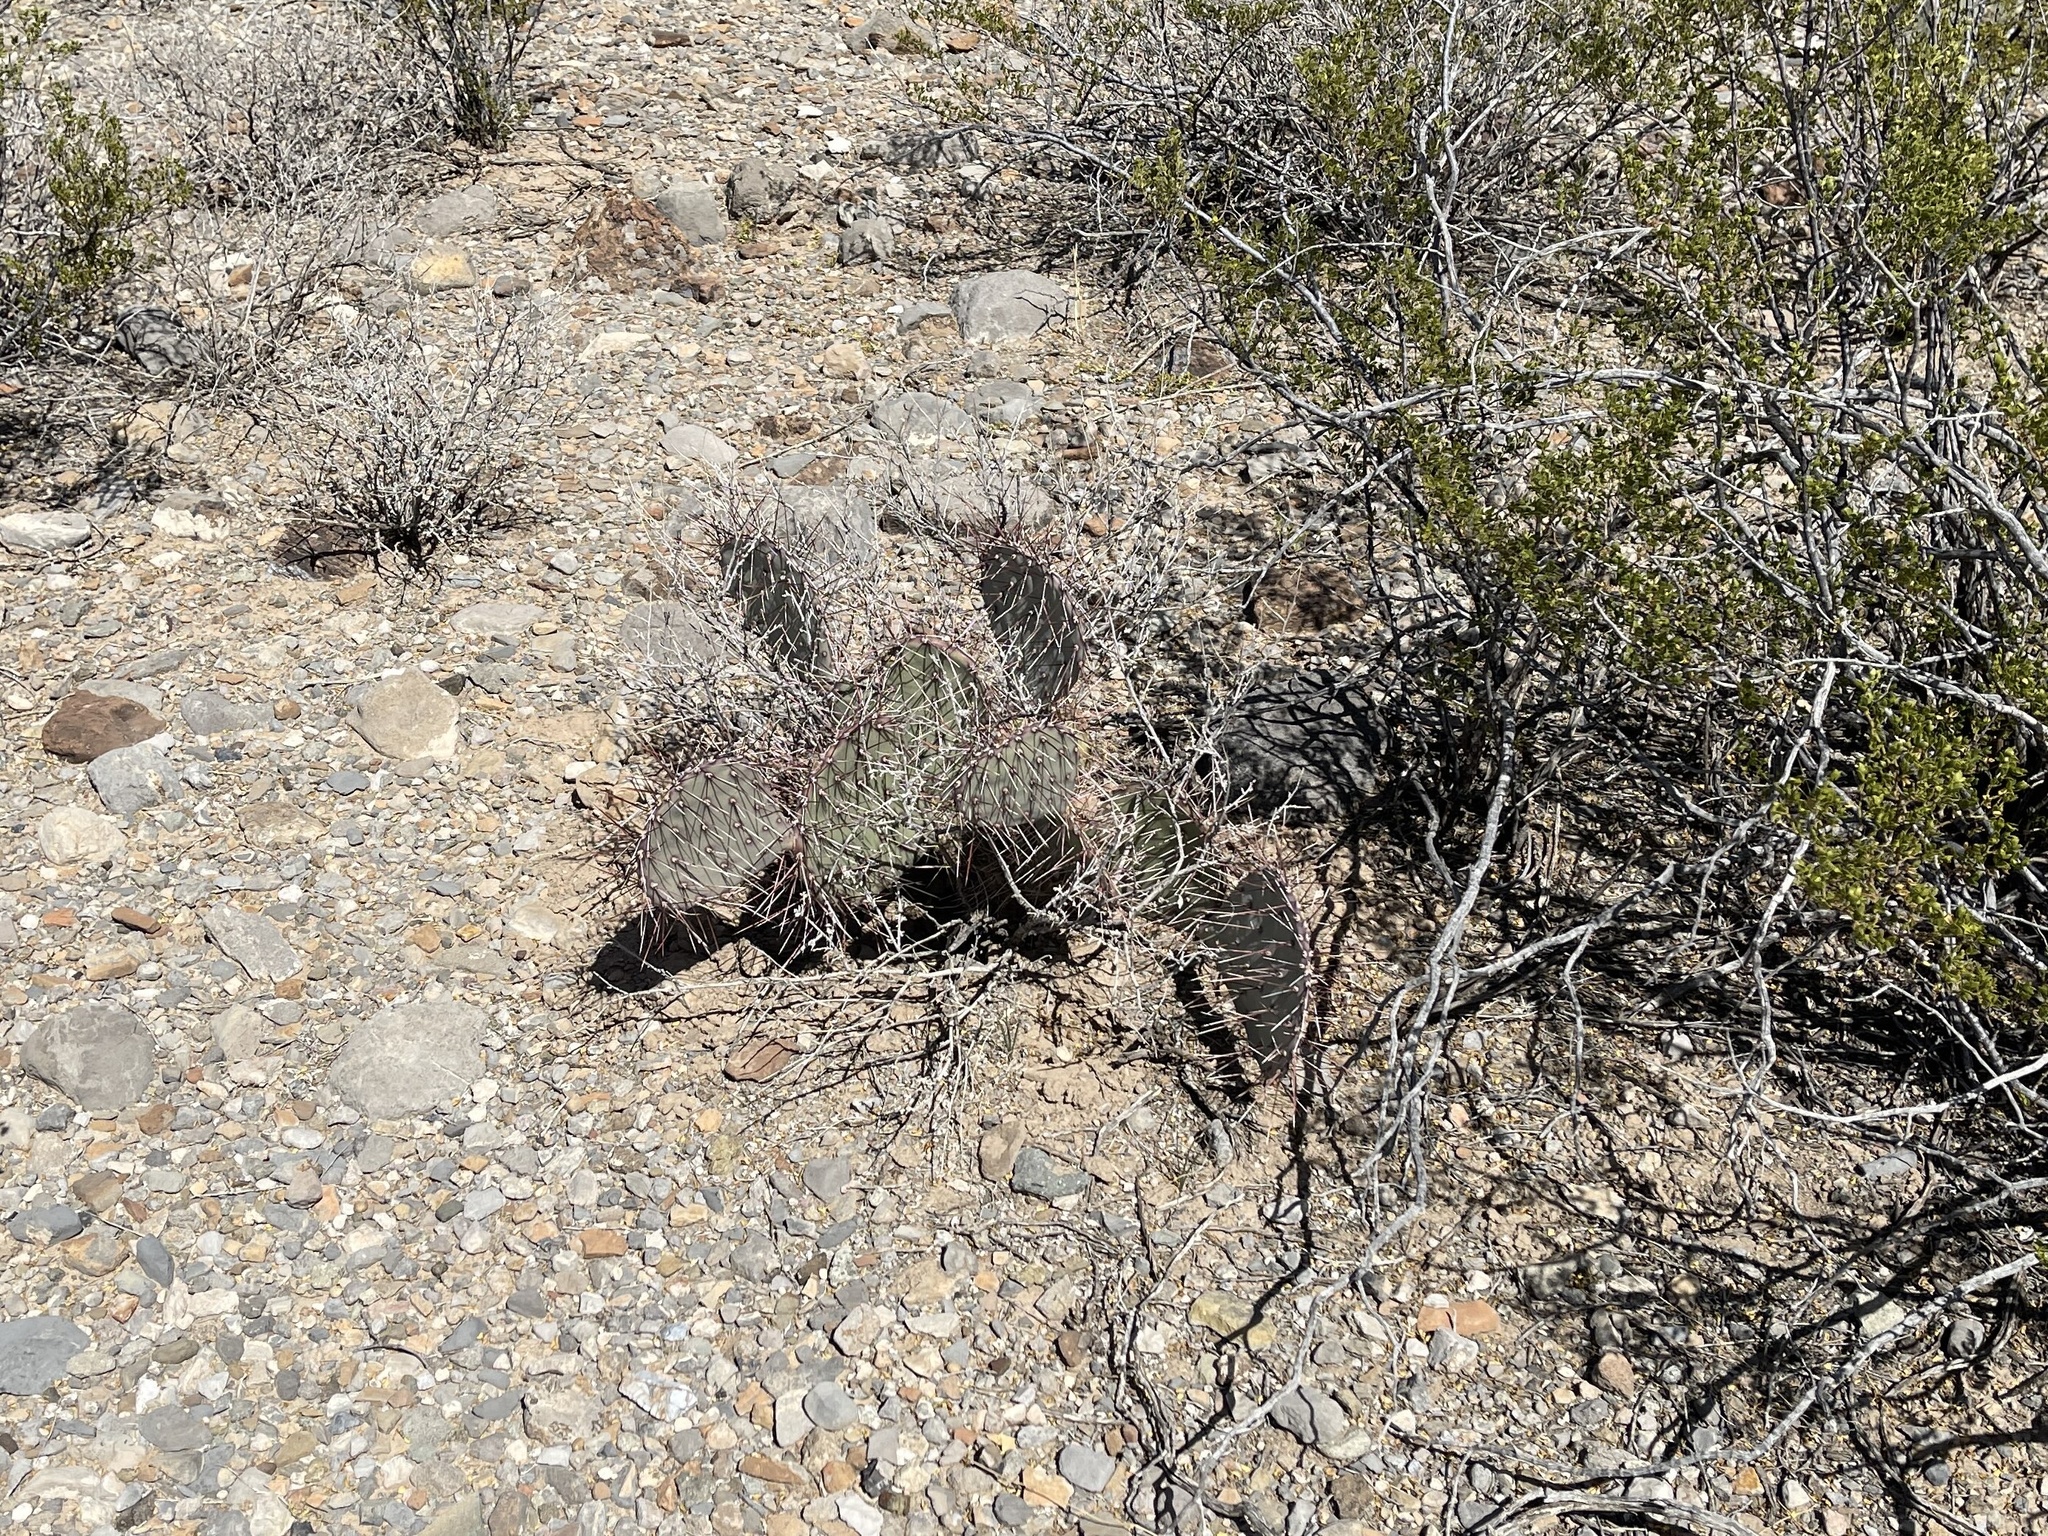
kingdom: Plantae
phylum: Tracheophyta
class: Magnoliopsida
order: Caryophyllales
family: Cactaceae
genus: Opuntia
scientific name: Opuntia macrocentra
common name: Purple prickly-pear
